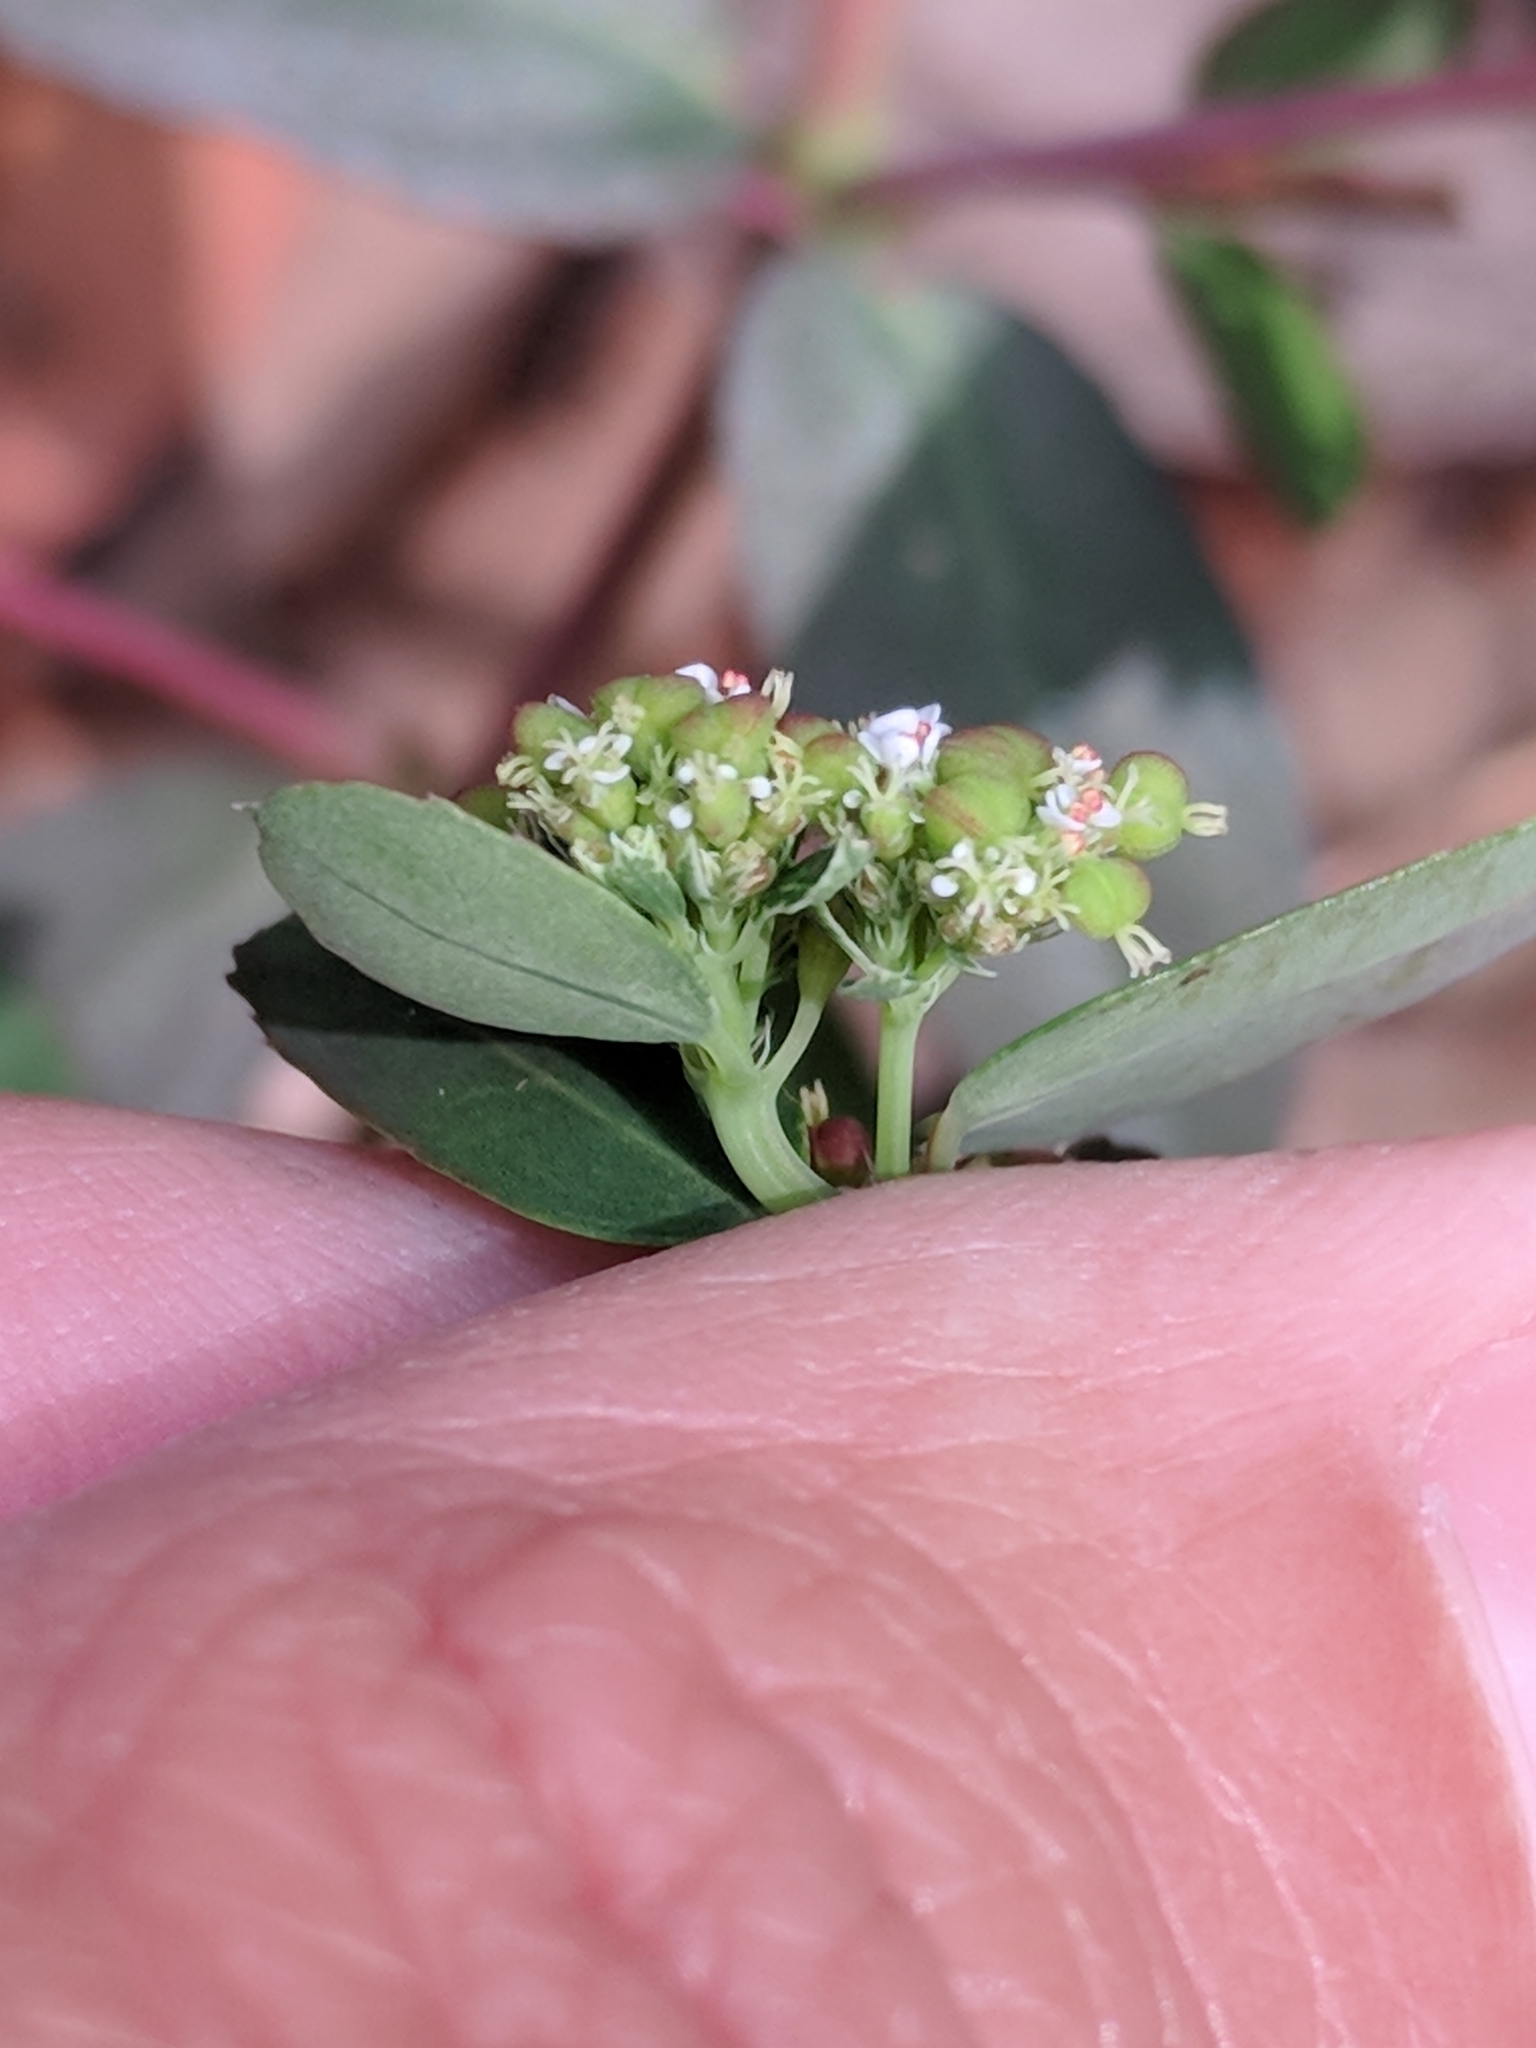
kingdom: Plantae
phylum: Tracheophyta
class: Magnoliopsida
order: Malpighiales
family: Euphorbiaceae
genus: Euphorbia
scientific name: Euphorbia hypericifolia
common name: Graceful sandmat
